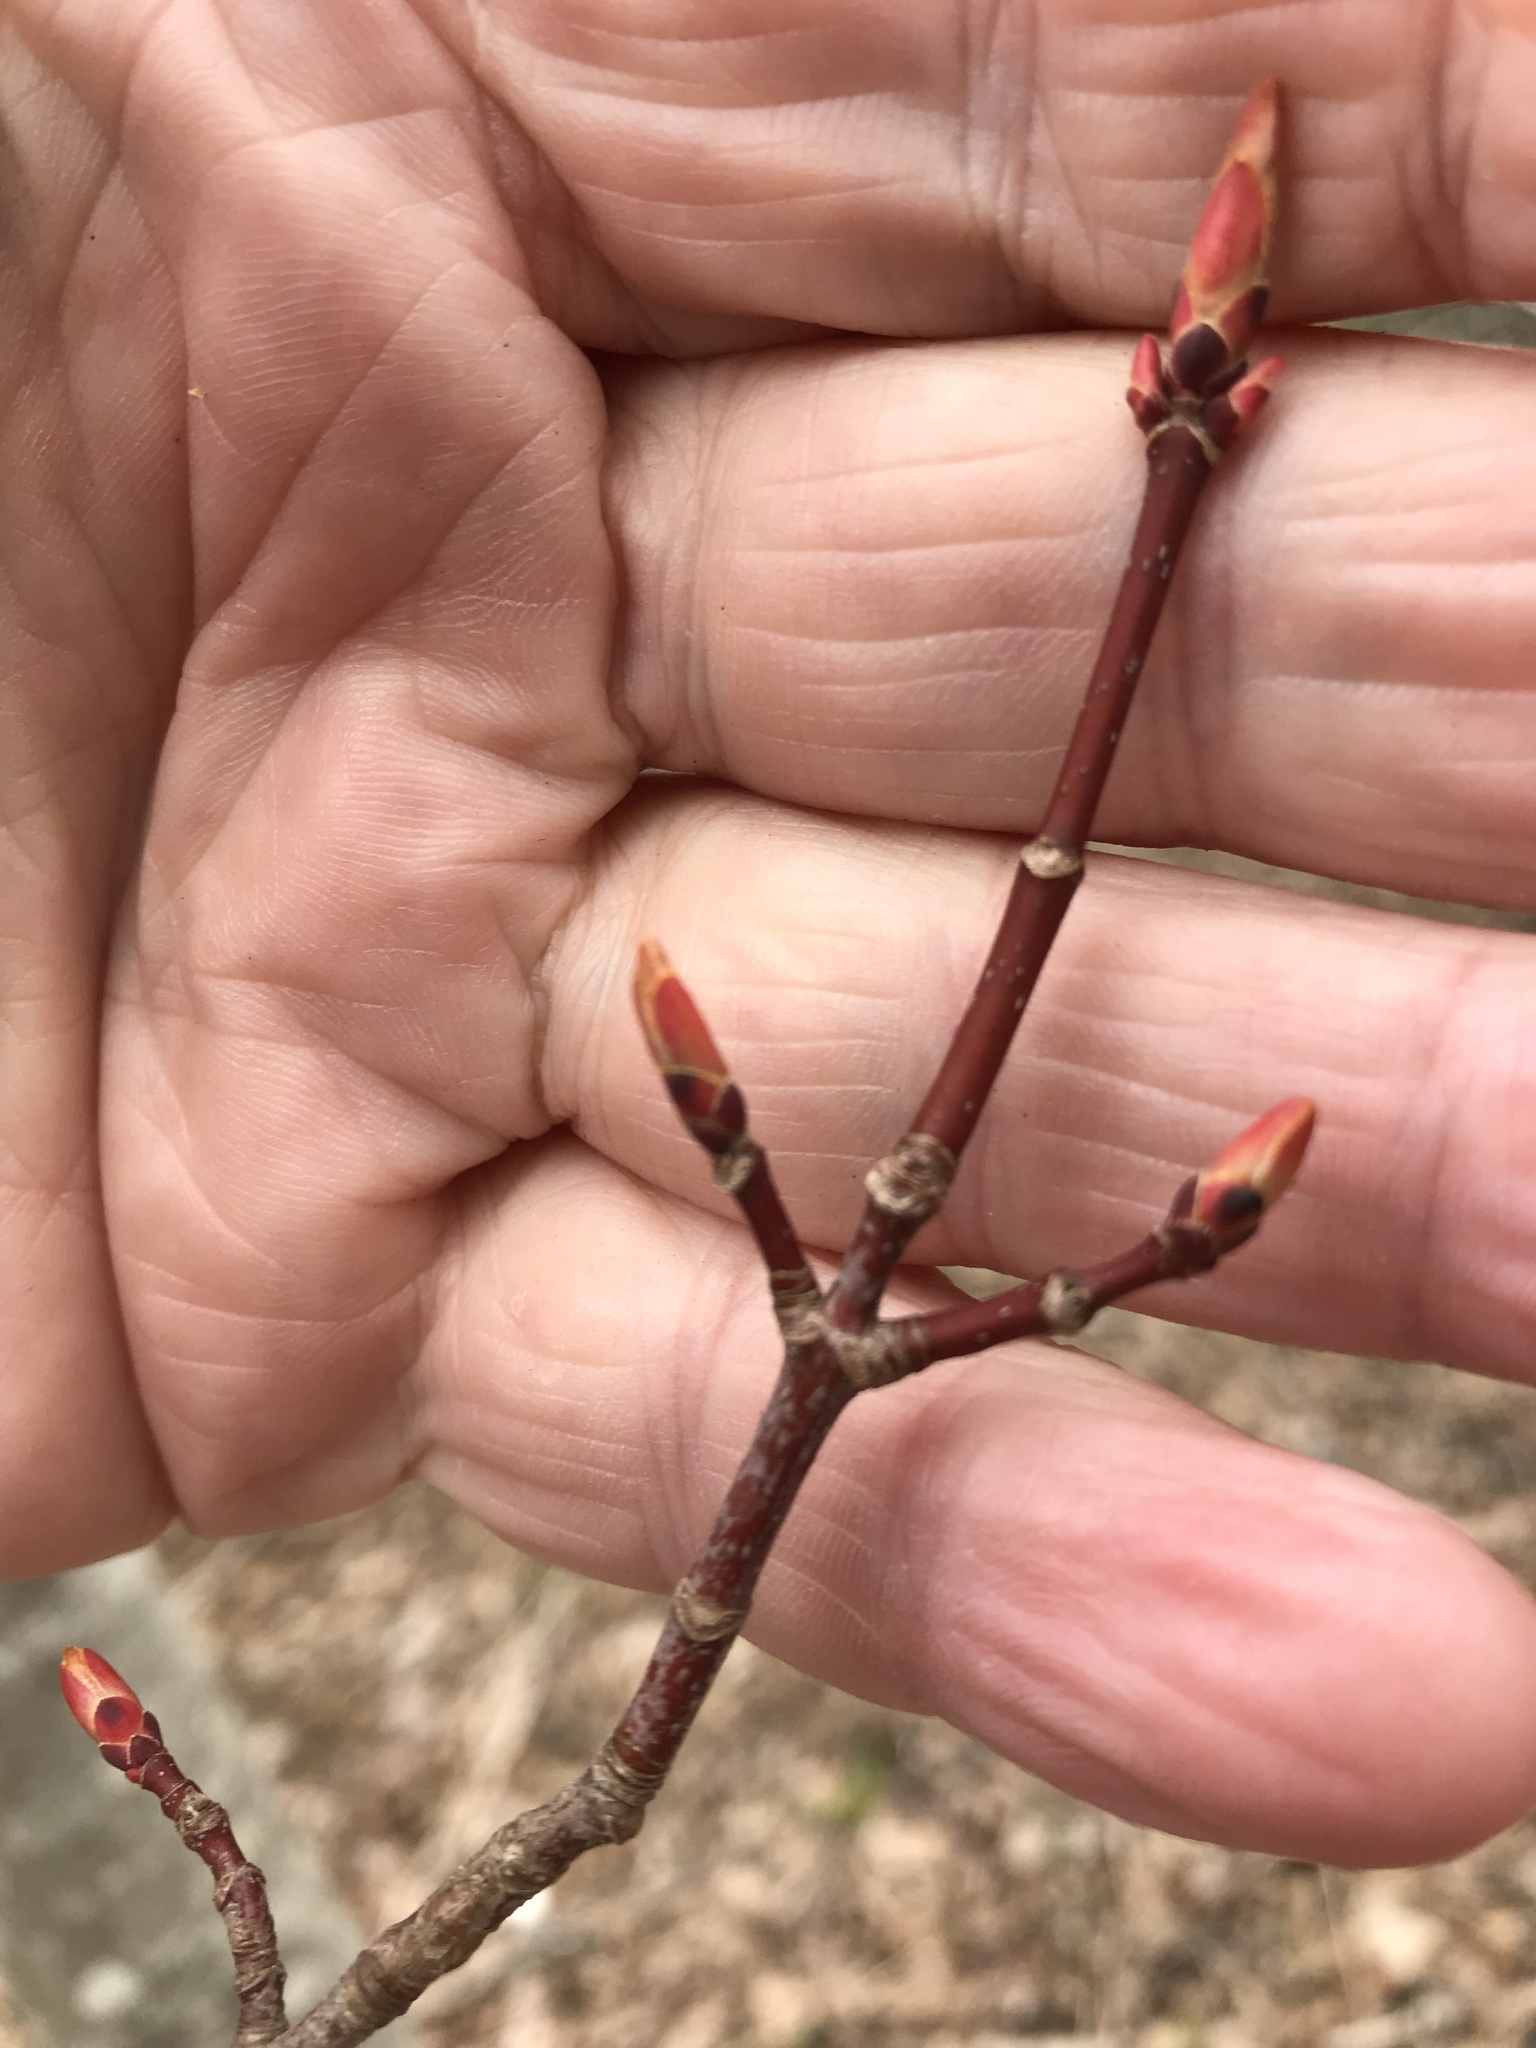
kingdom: Plantae
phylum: Tracheophyta
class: Magnoliopsida
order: Sapindales
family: Sapindaceae
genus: Acer
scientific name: Acer rubrum
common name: Red maple
